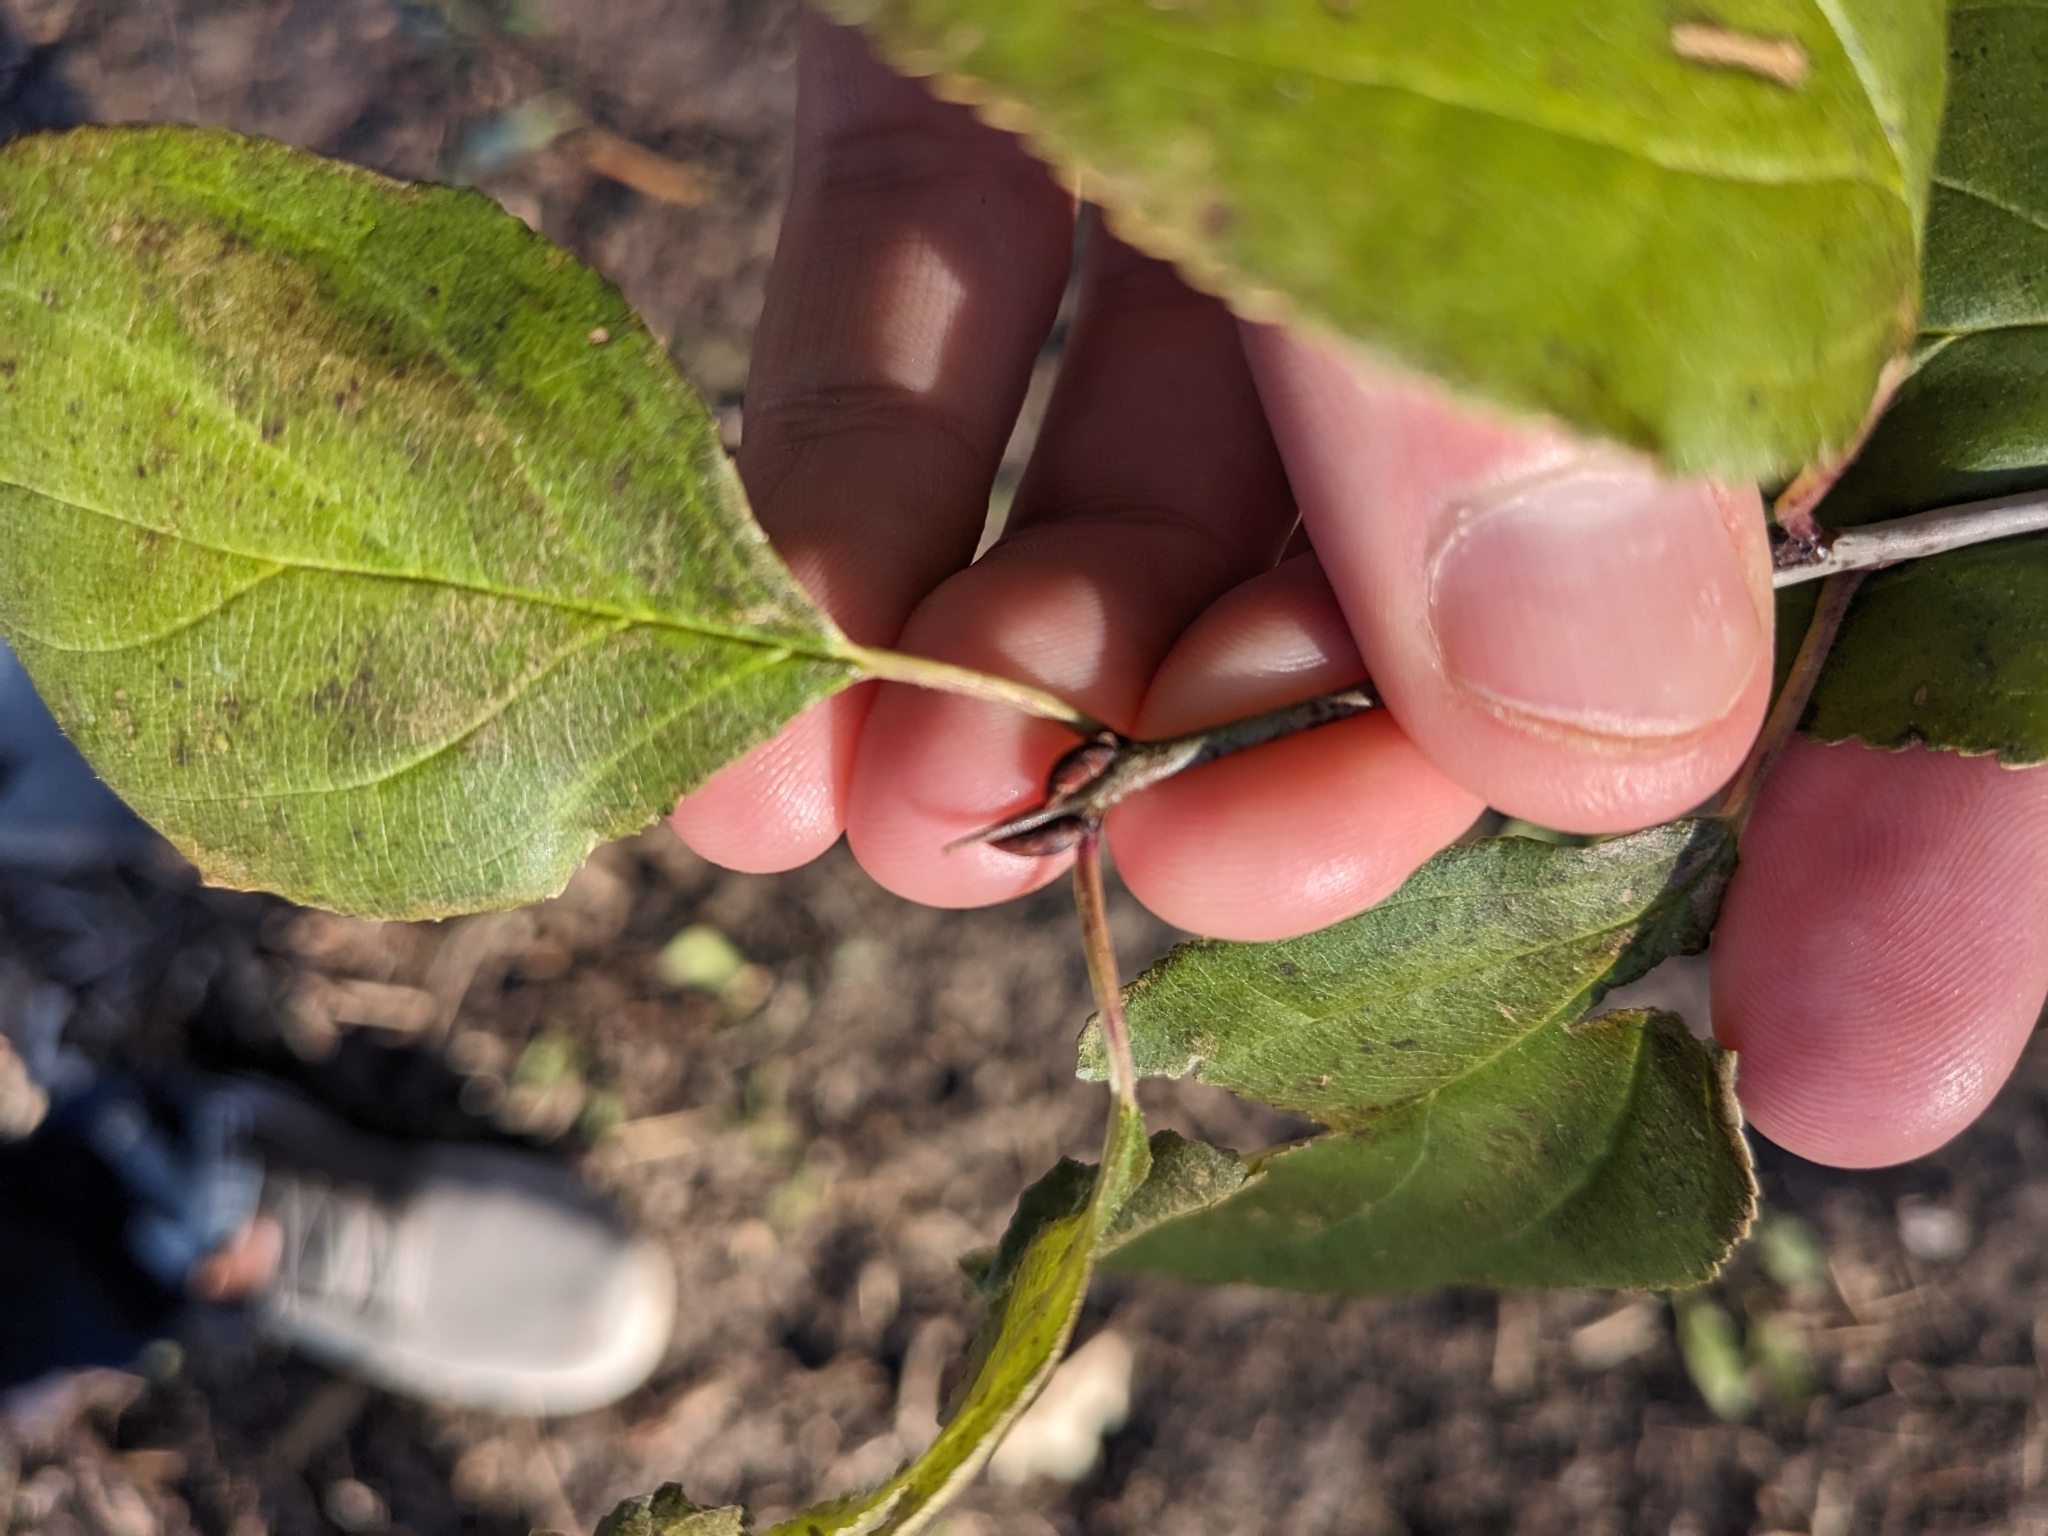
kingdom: Plantae
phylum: Tracheophyta
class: Magnoliopsida
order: Rosales
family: Rhamnaceae
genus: Rhamnus
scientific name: Rhamnus cathartica
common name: Common buckthorn
